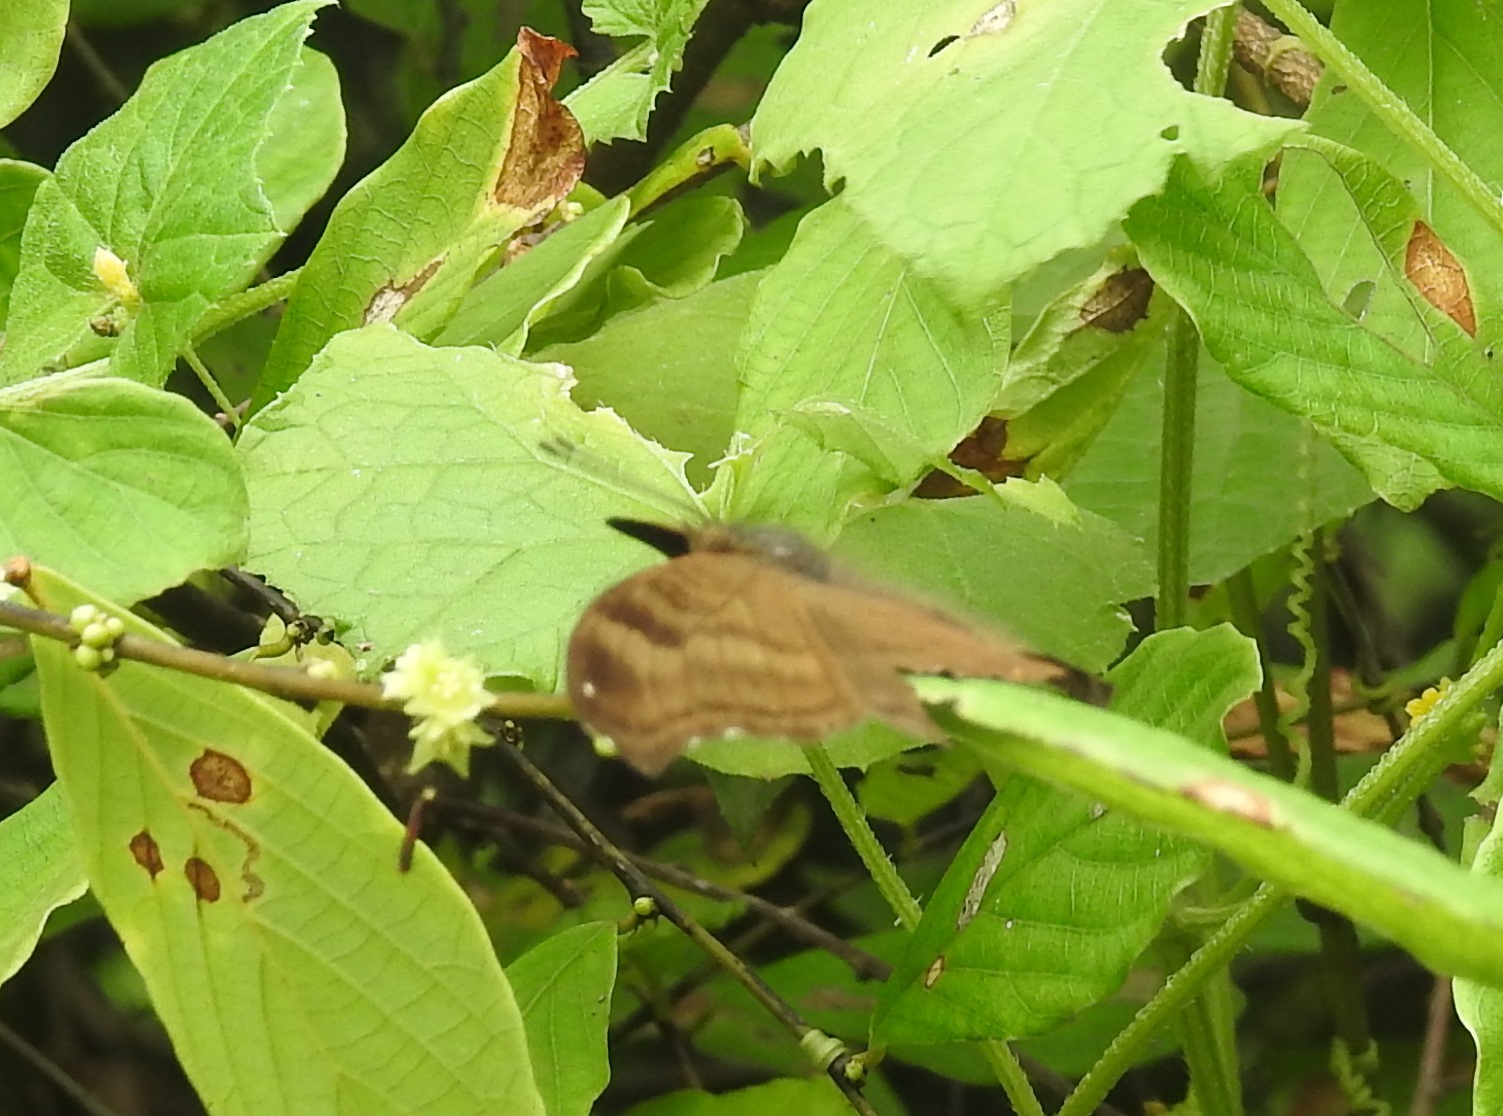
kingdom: Animalia
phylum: Arthropoda
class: Insecta
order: Lepidoptera
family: Nymphalidae
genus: Junonia
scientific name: Junonia iphita
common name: Chocolate pansy
